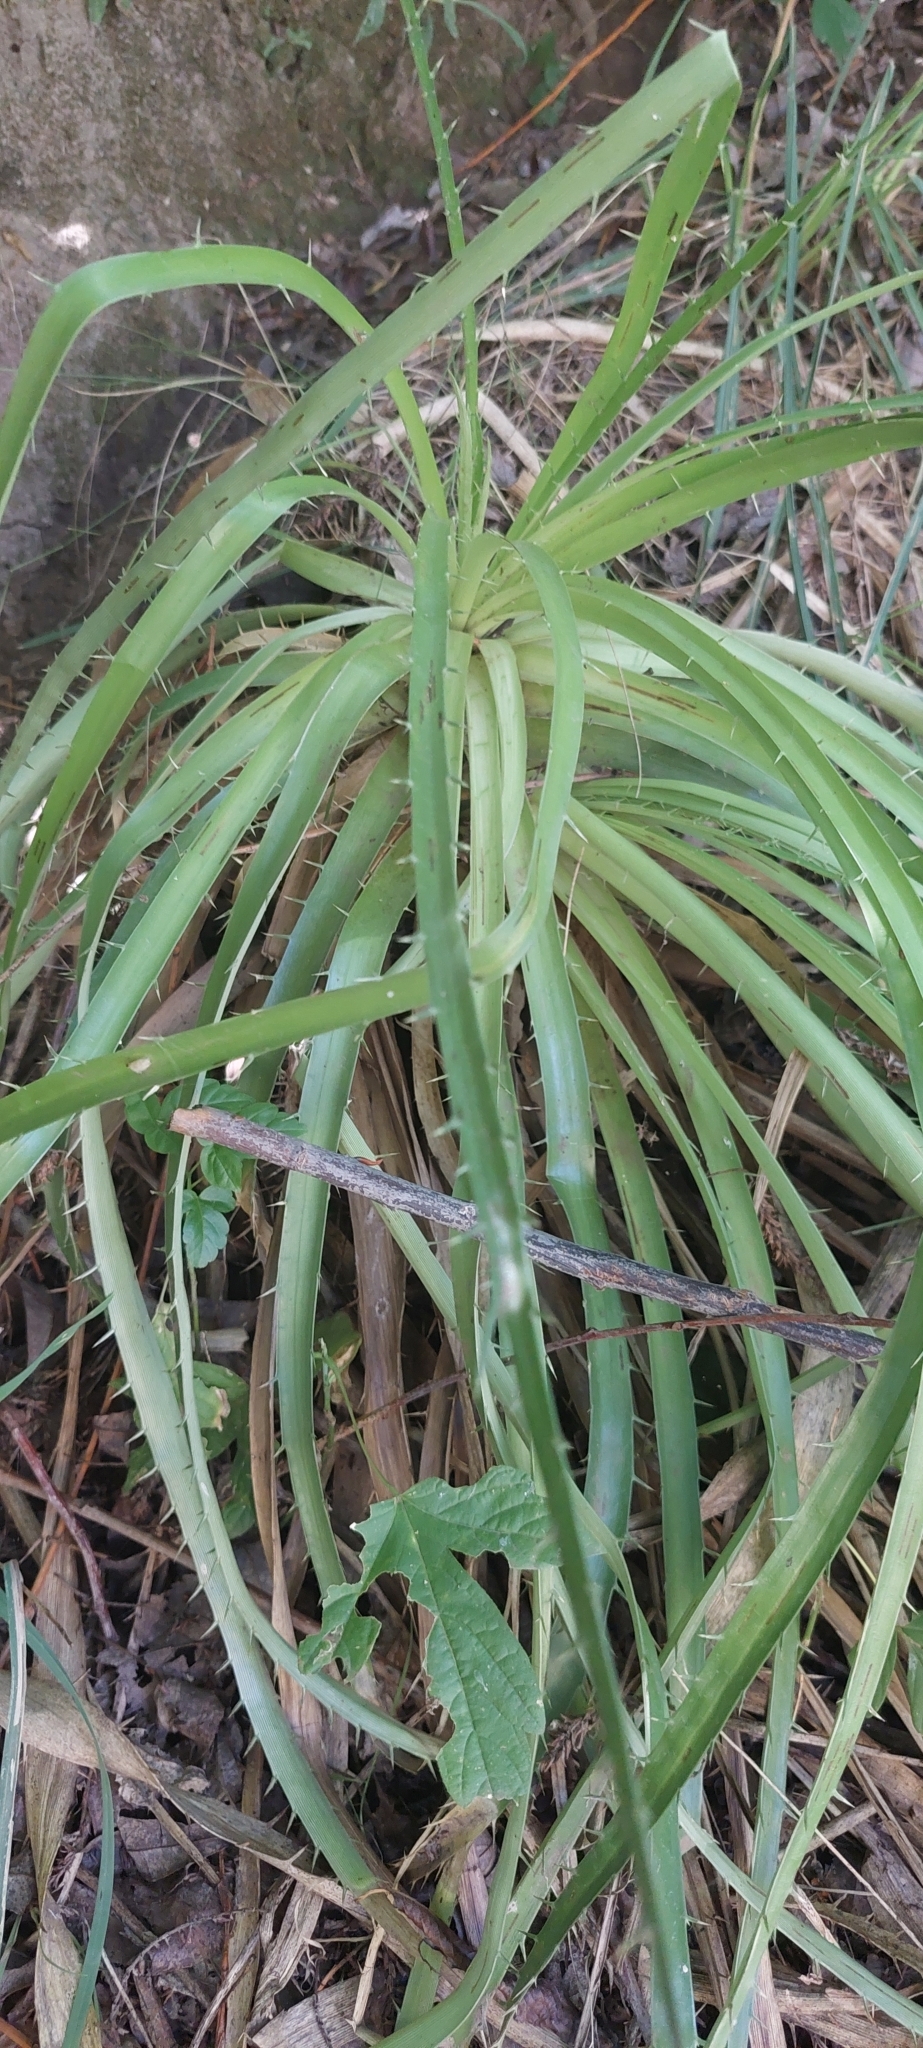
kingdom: Plantae
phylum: Tracheophyta
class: Magnoliopsida
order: Apiales
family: Apiaceae
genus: Eryngium
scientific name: Eryngium humboldtii
